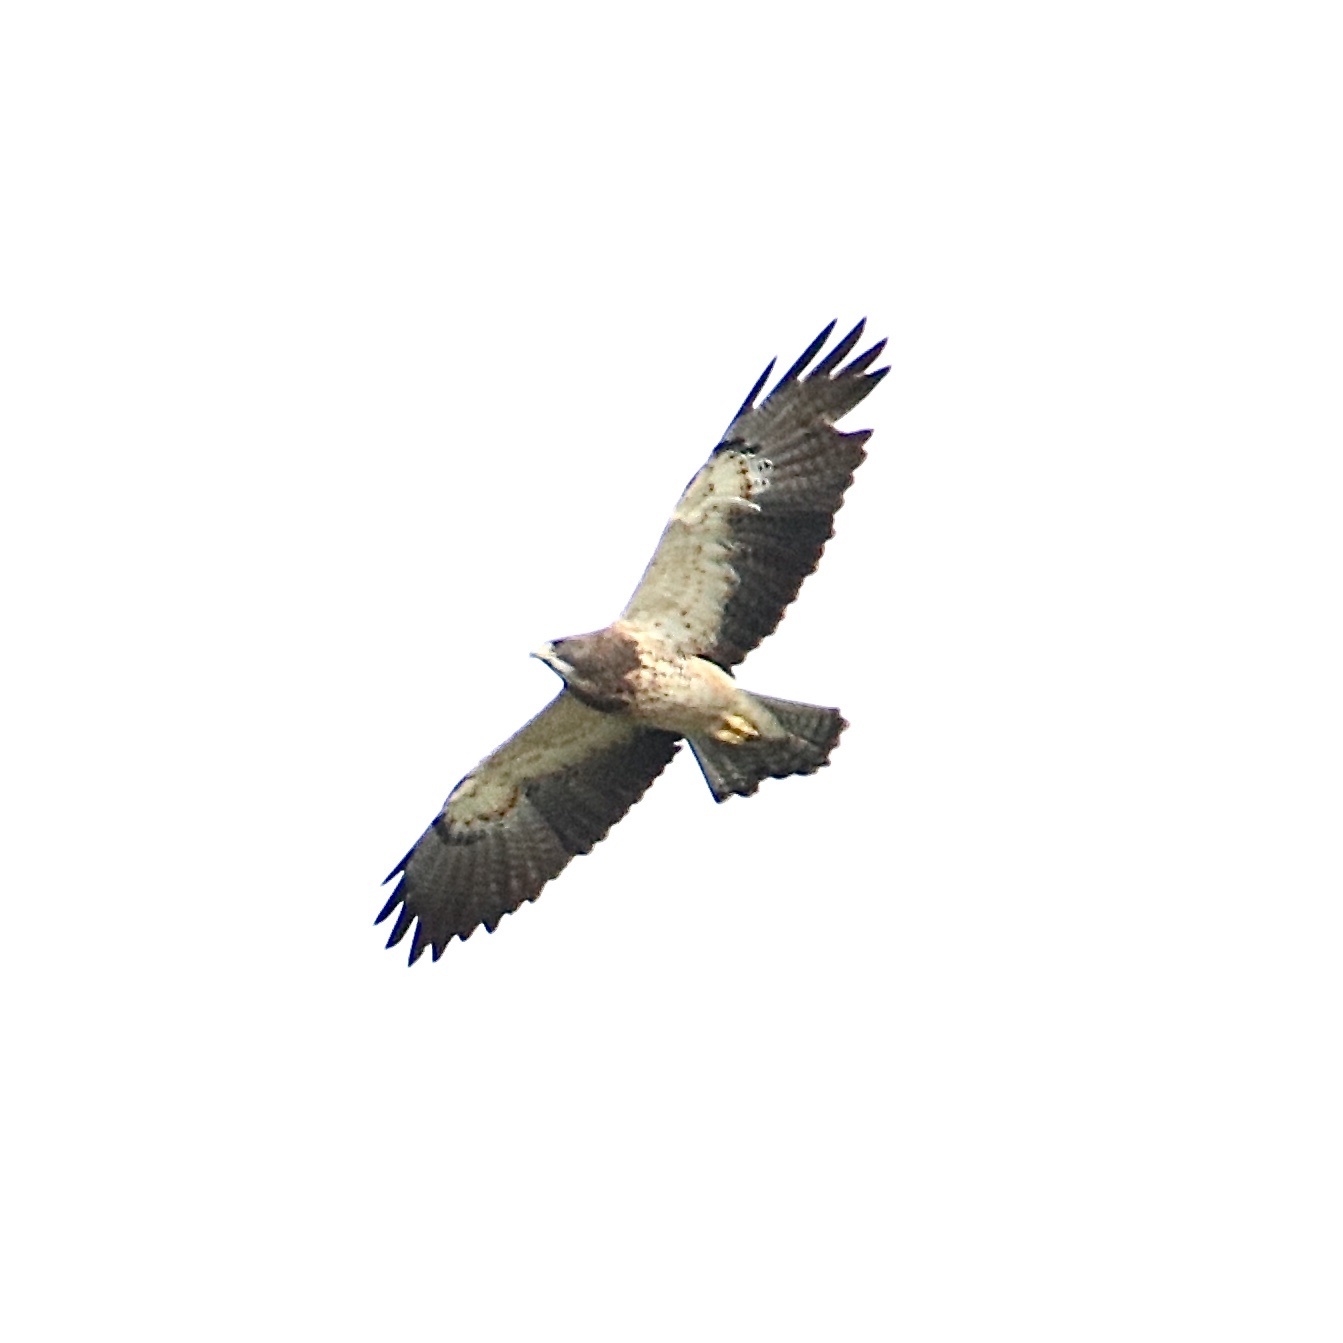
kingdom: Animalia
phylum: Chordata
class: Aves
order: Accipitriformes
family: Accipitridae
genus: Buteo
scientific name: Buteo swainsoni
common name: Swainson's hawk
